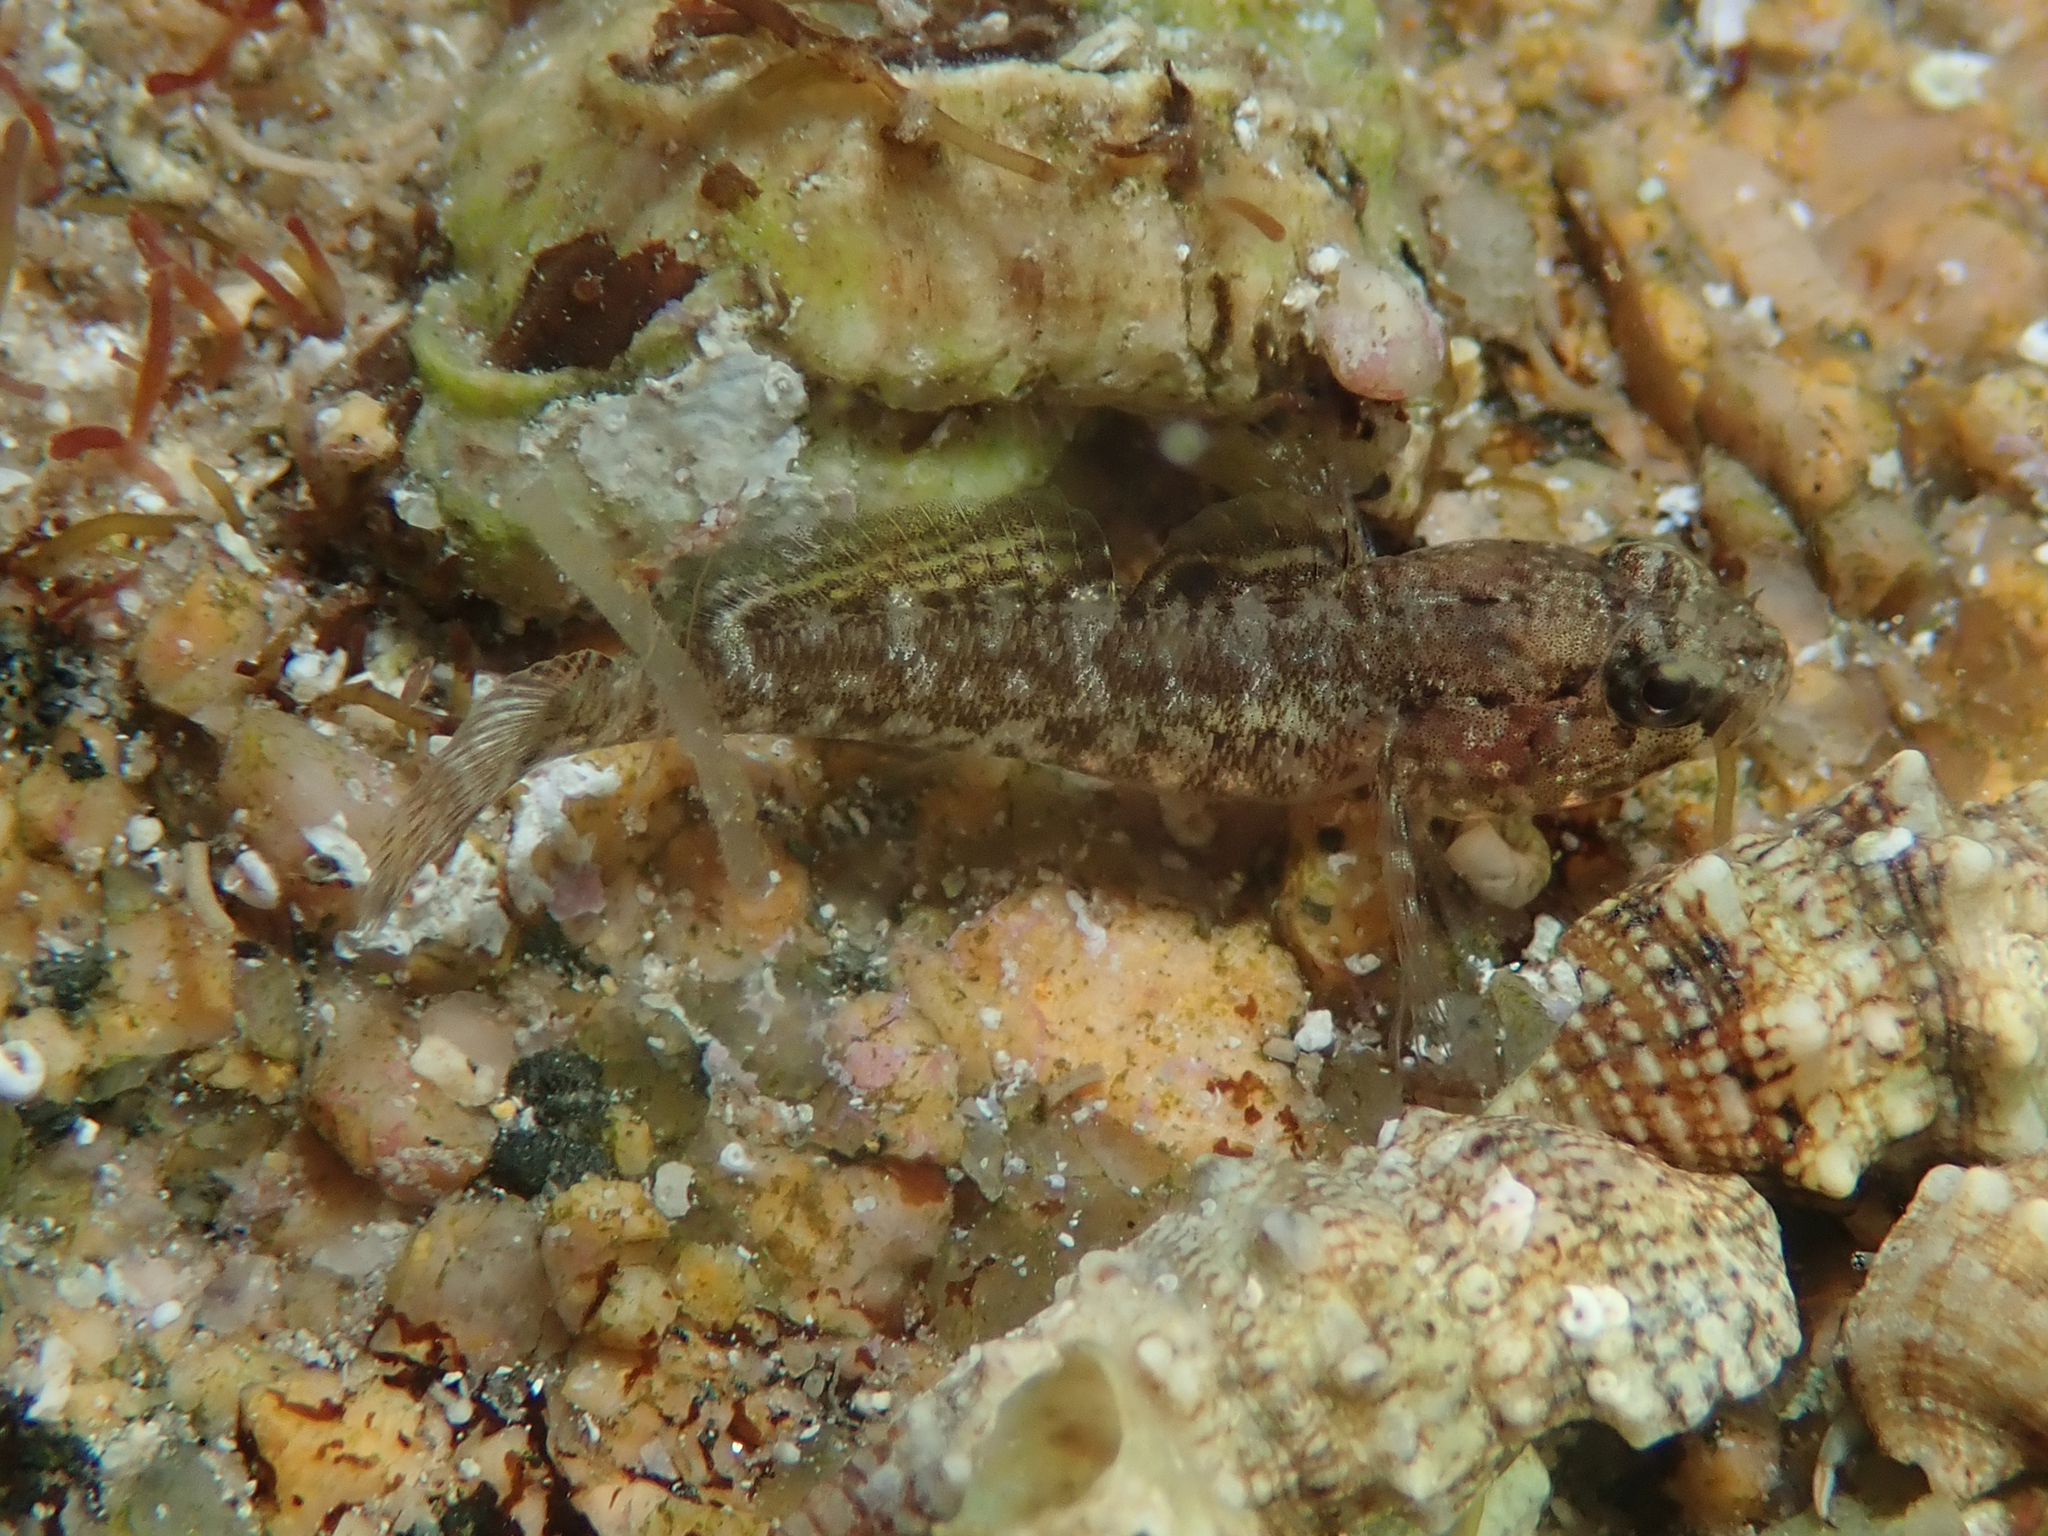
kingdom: Animalia
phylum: Chordata
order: Perciformes
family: Gobiidae
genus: Gobius
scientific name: Gobius paganellus
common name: Rock goby
